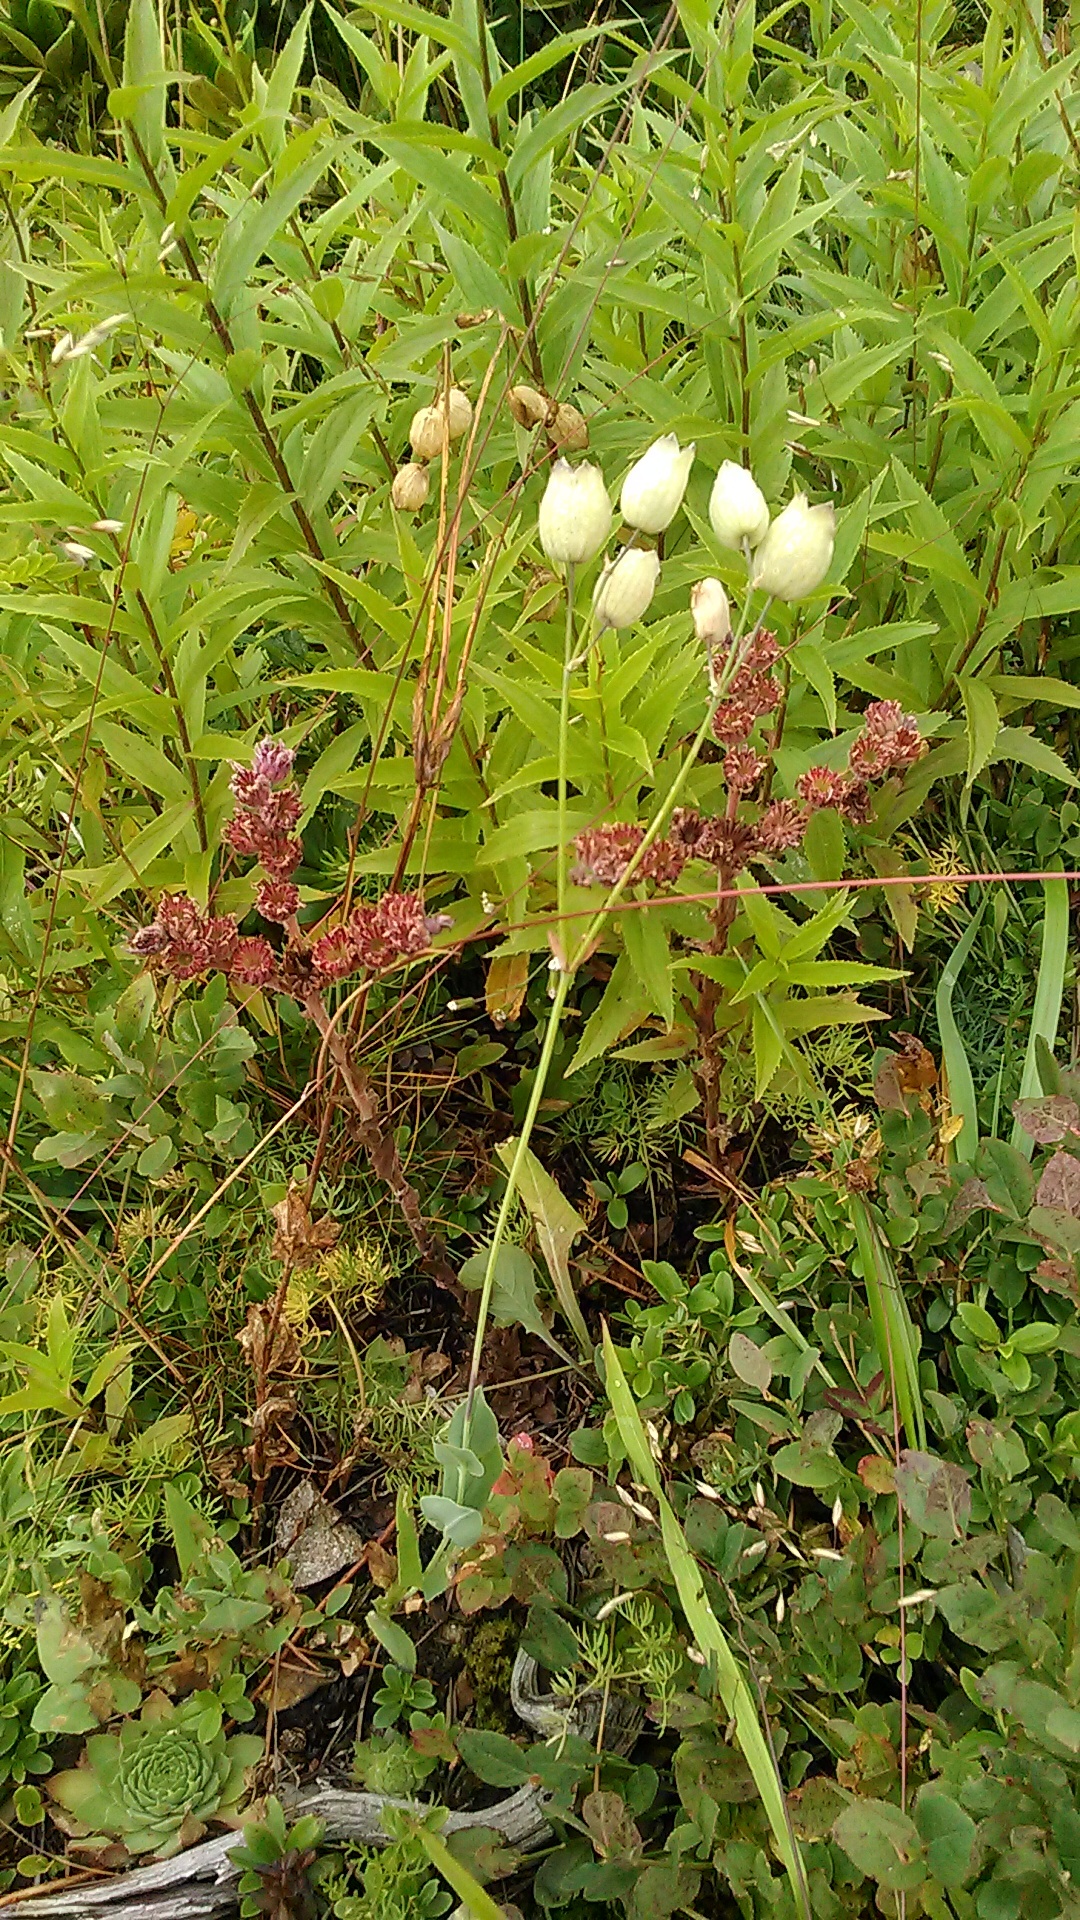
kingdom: Plantae
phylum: Tracheophyta
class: Magnoliopsida
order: Caryophyllales
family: Caryophyllaceae
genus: Silene
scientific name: Silene vulgaris
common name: Bladder campion
